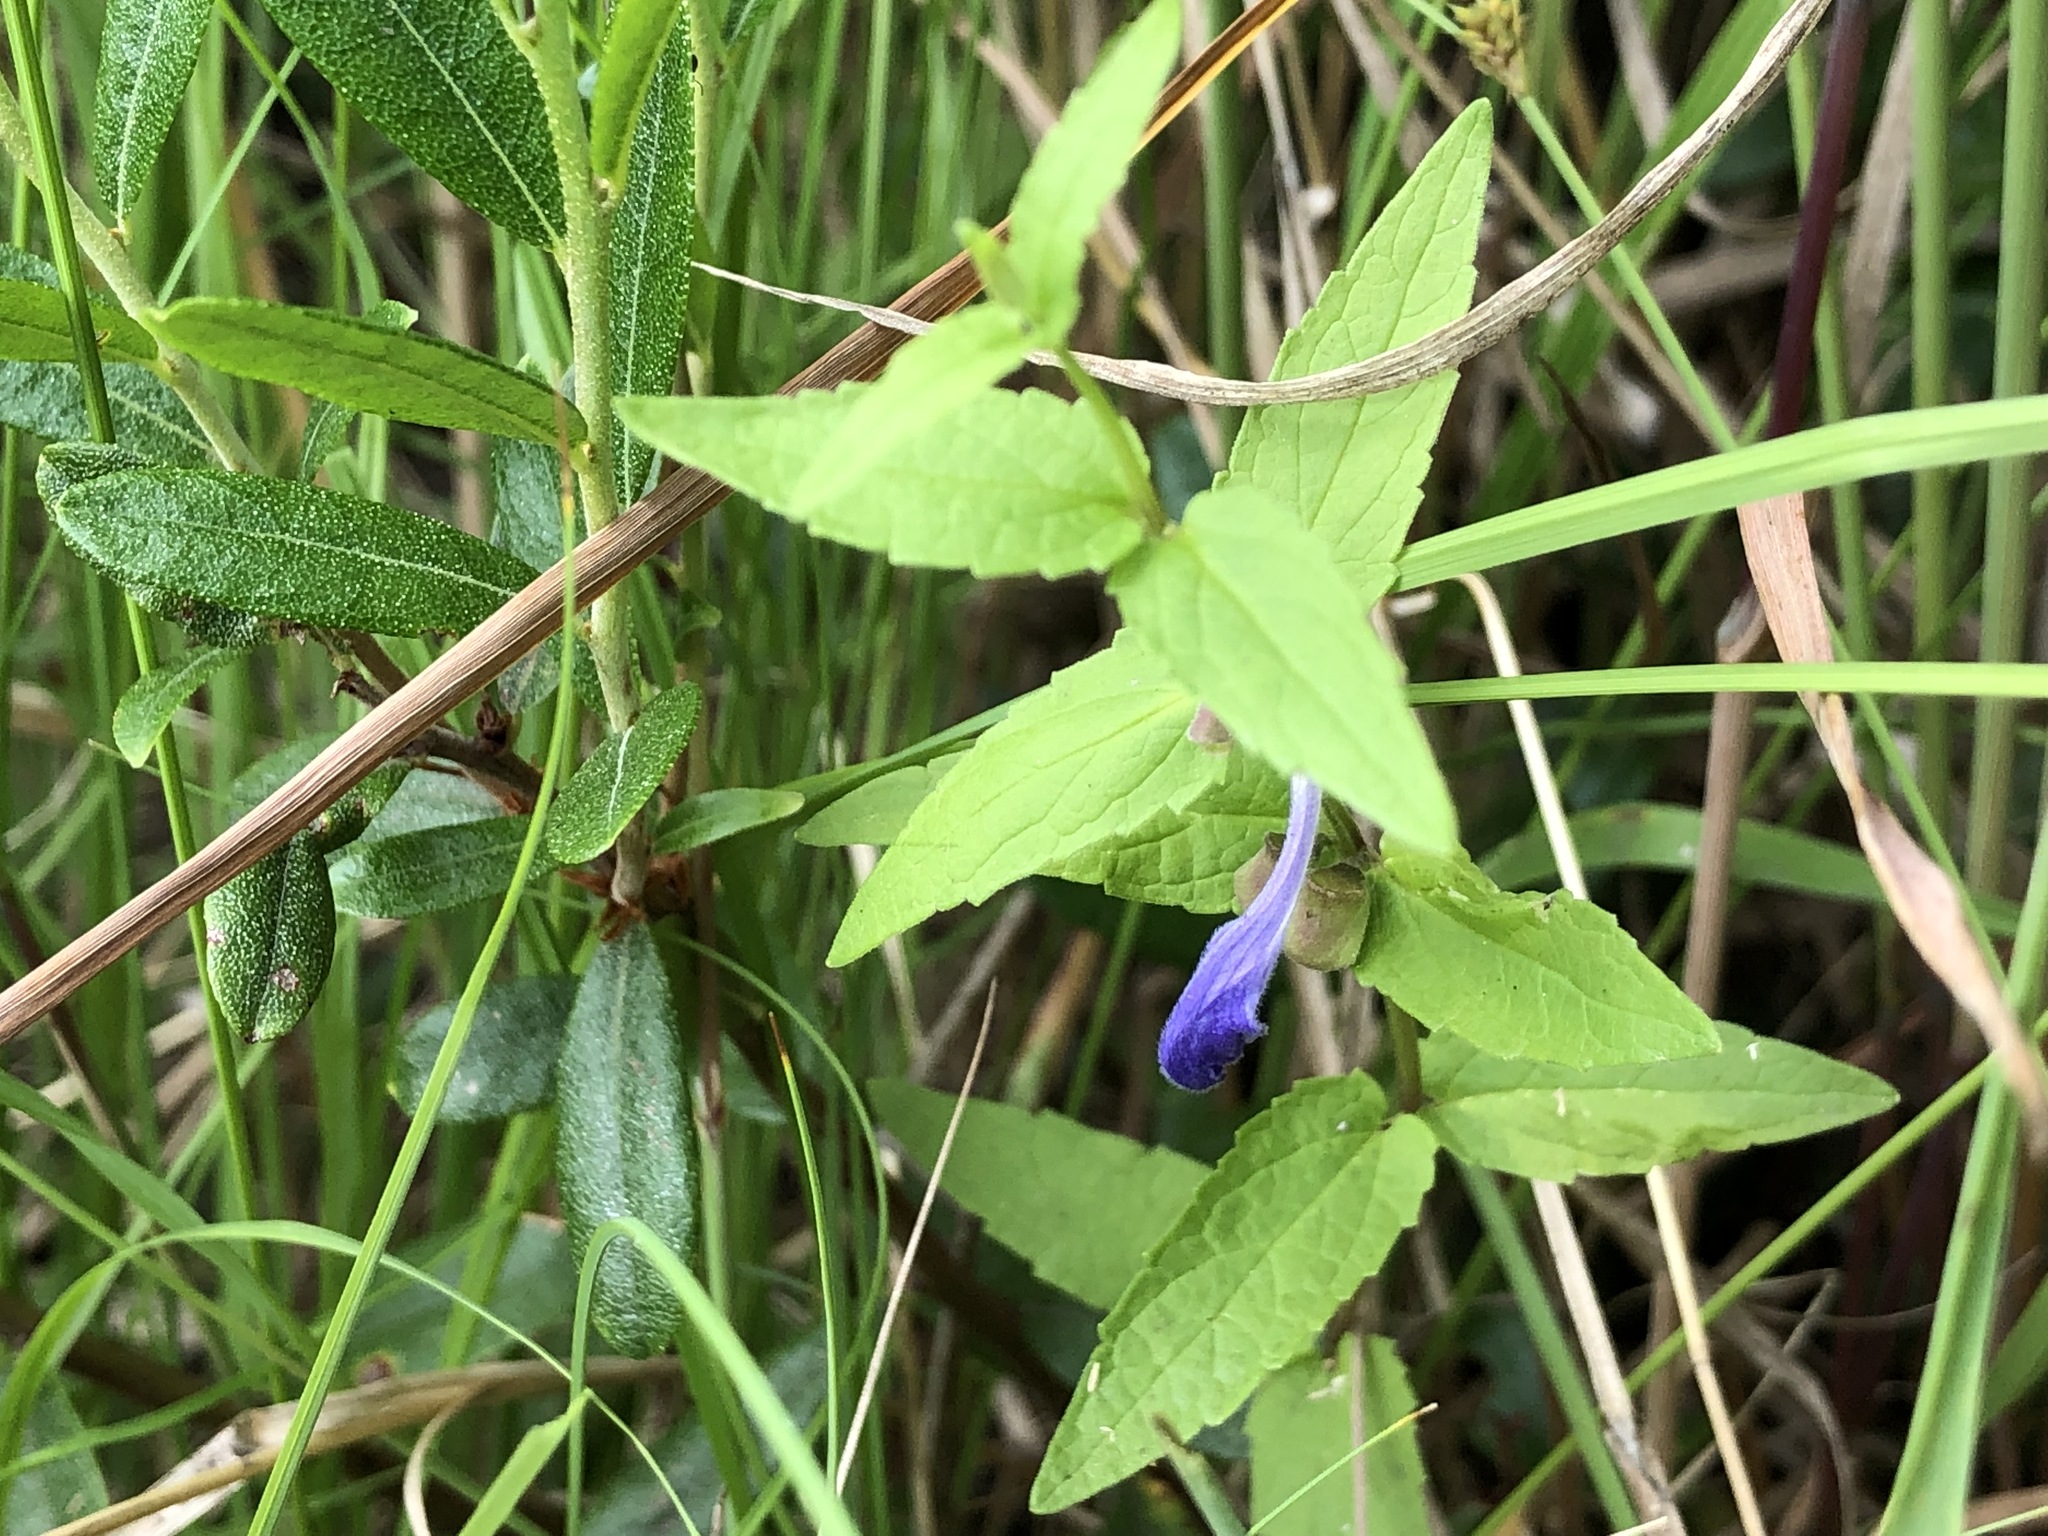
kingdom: Plantae
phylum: Tracheophyta
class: Magnoliopsida
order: Lamiales
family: Lamiaceae
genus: Scutellaria
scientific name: Scutellaria galericulata
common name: Skullcap
